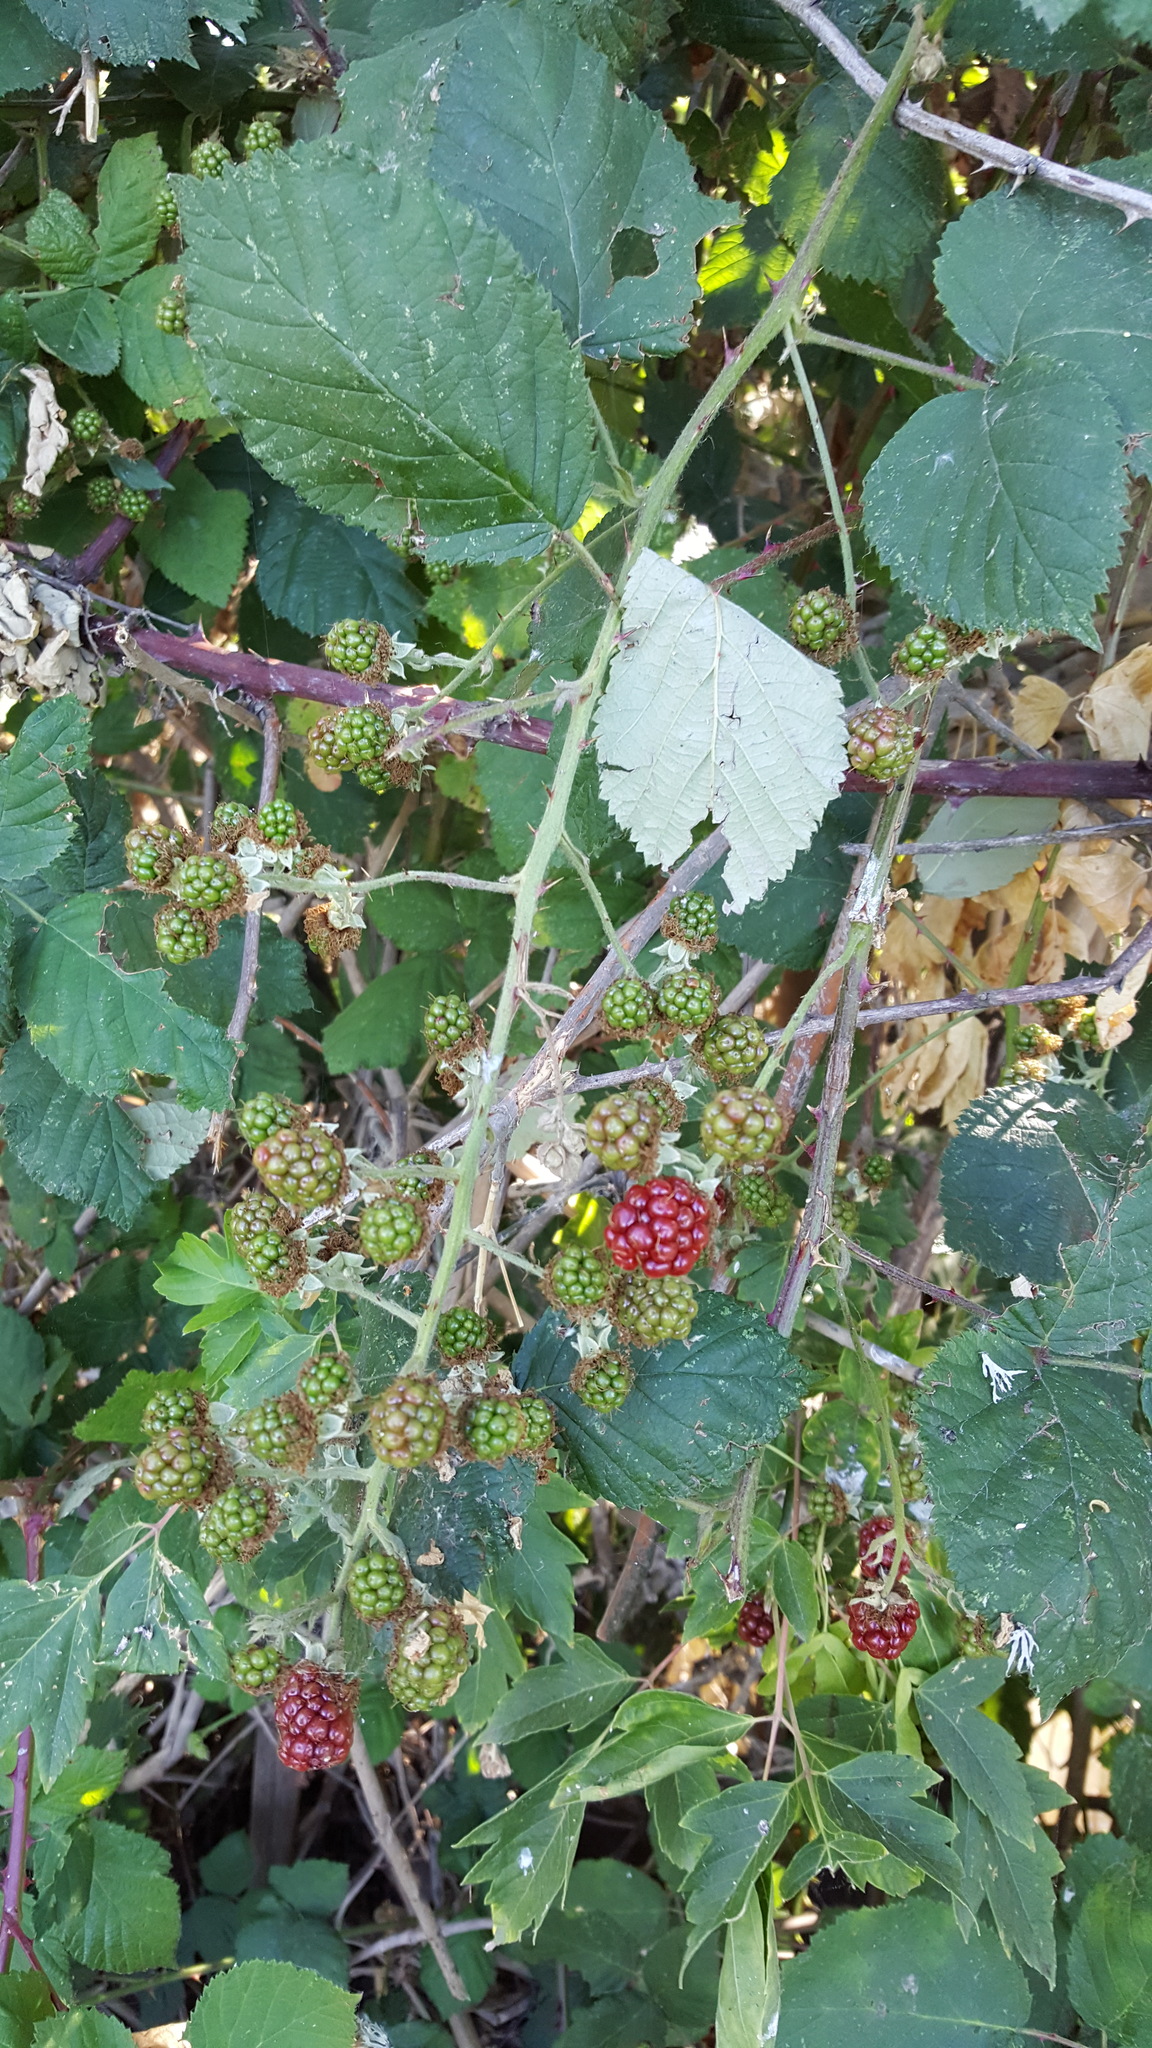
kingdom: Plantae
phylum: Tracheophyta
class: Magnoliopsida
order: Rosales
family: Rosaceae
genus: Rubus
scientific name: Rubus armeniacus
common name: Himalayan blackberry
